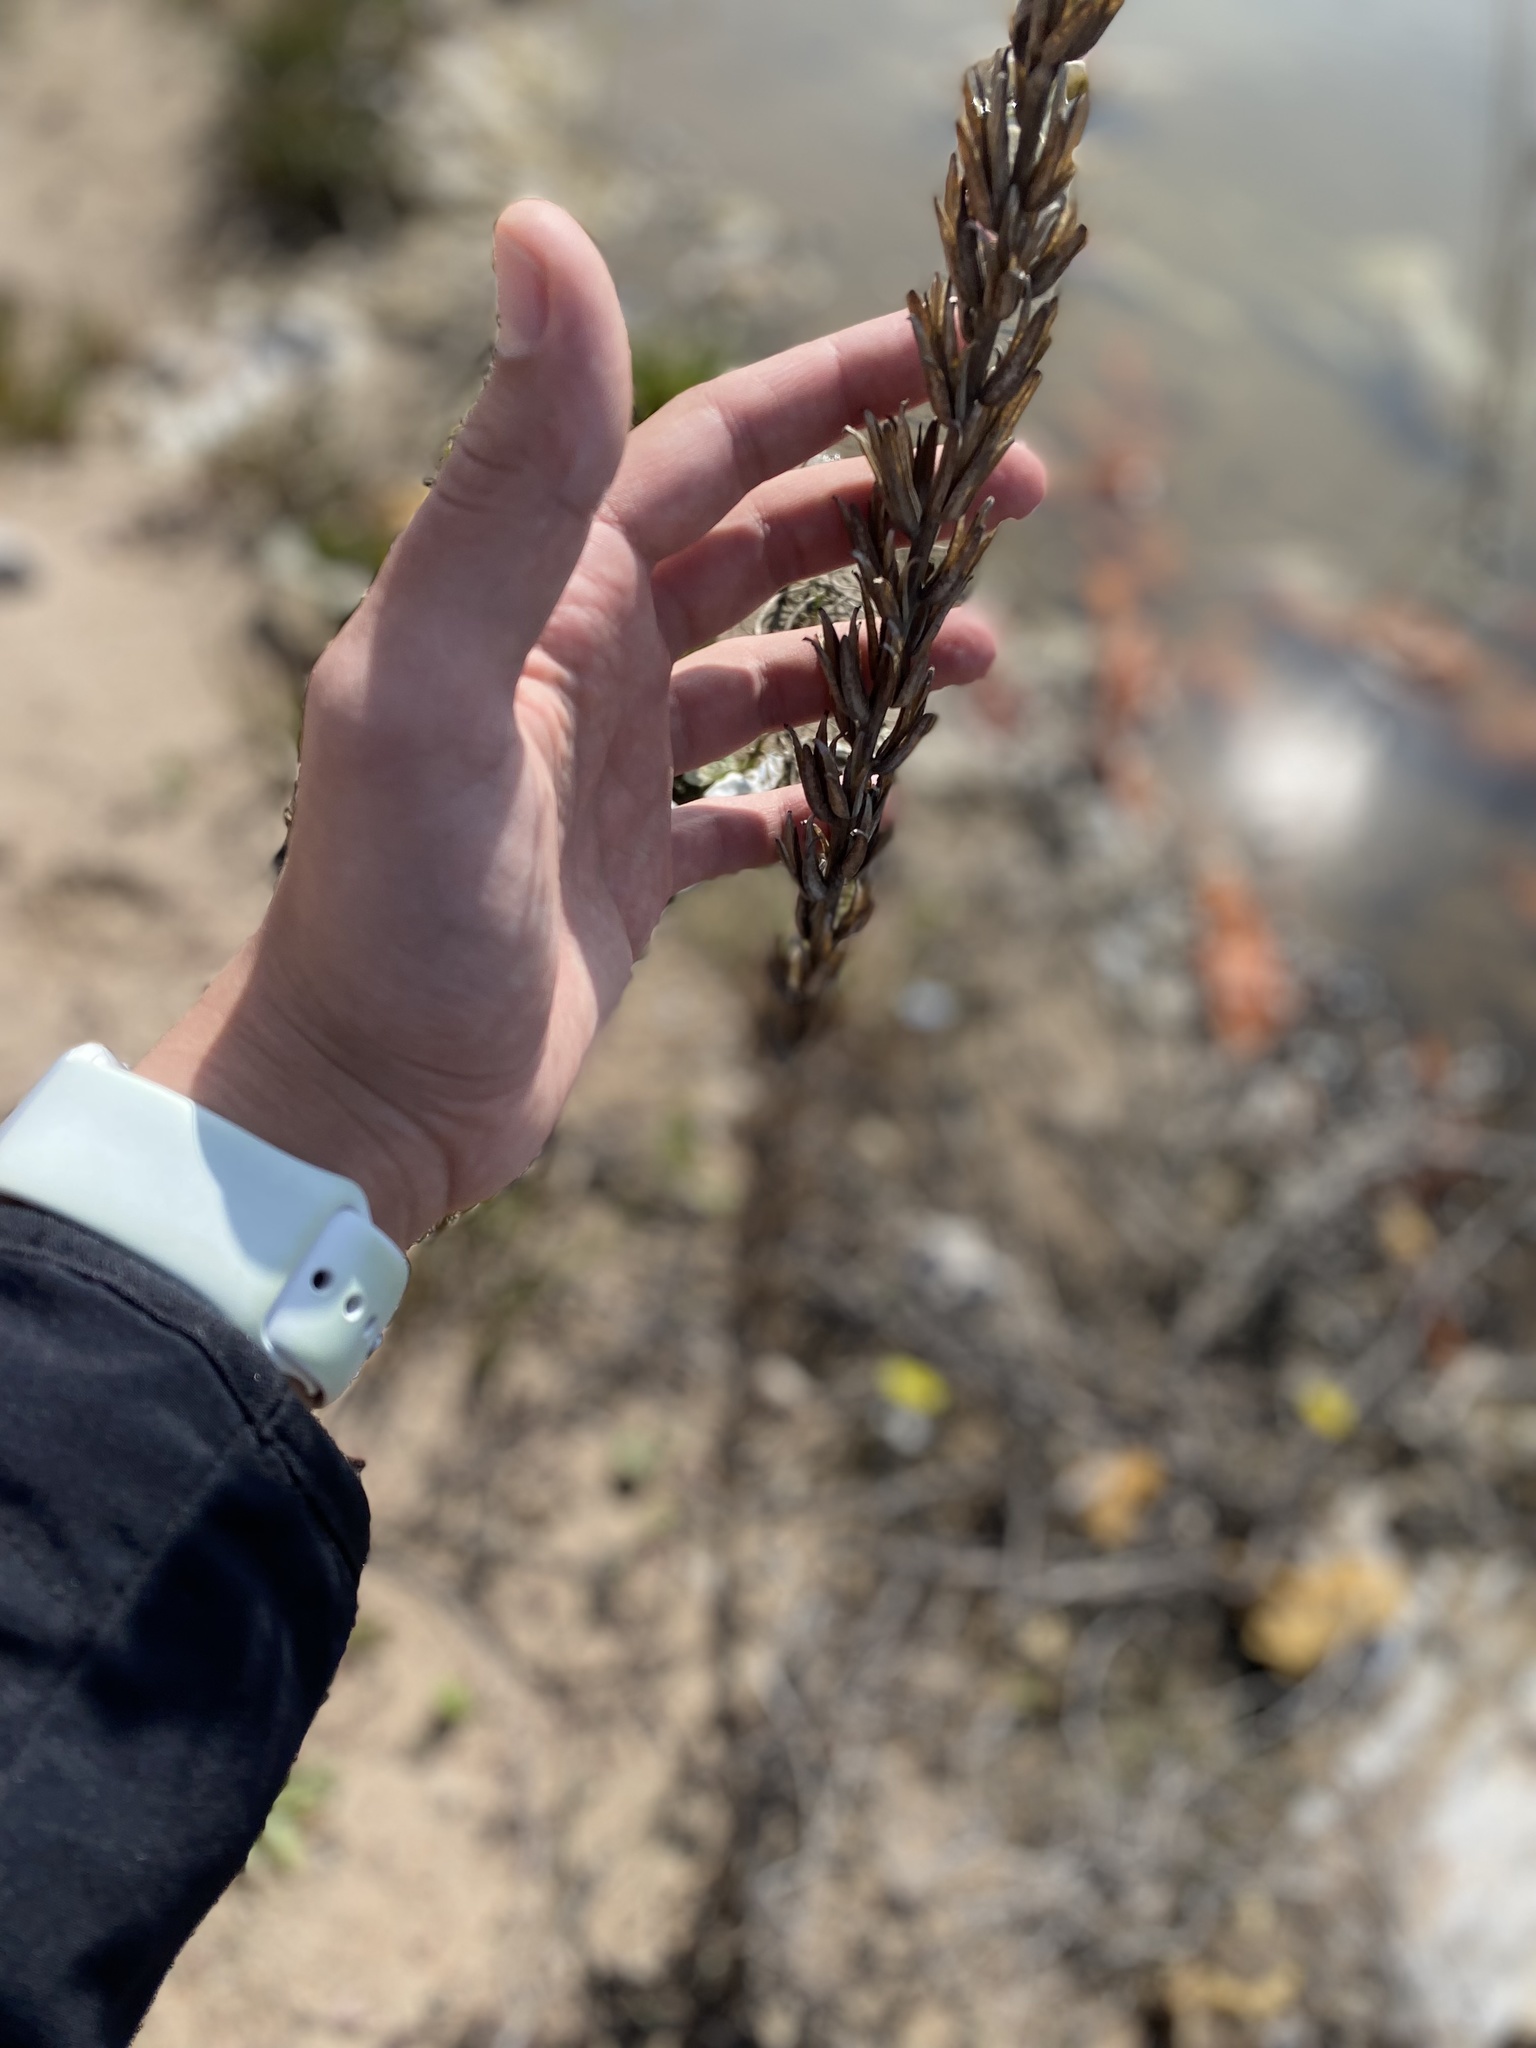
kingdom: Plantae
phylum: Tracheophyta
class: Magnoliopsida
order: Myrtales
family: Onagraceae
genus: Oenothera
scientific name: Oenothera rubricaulis
